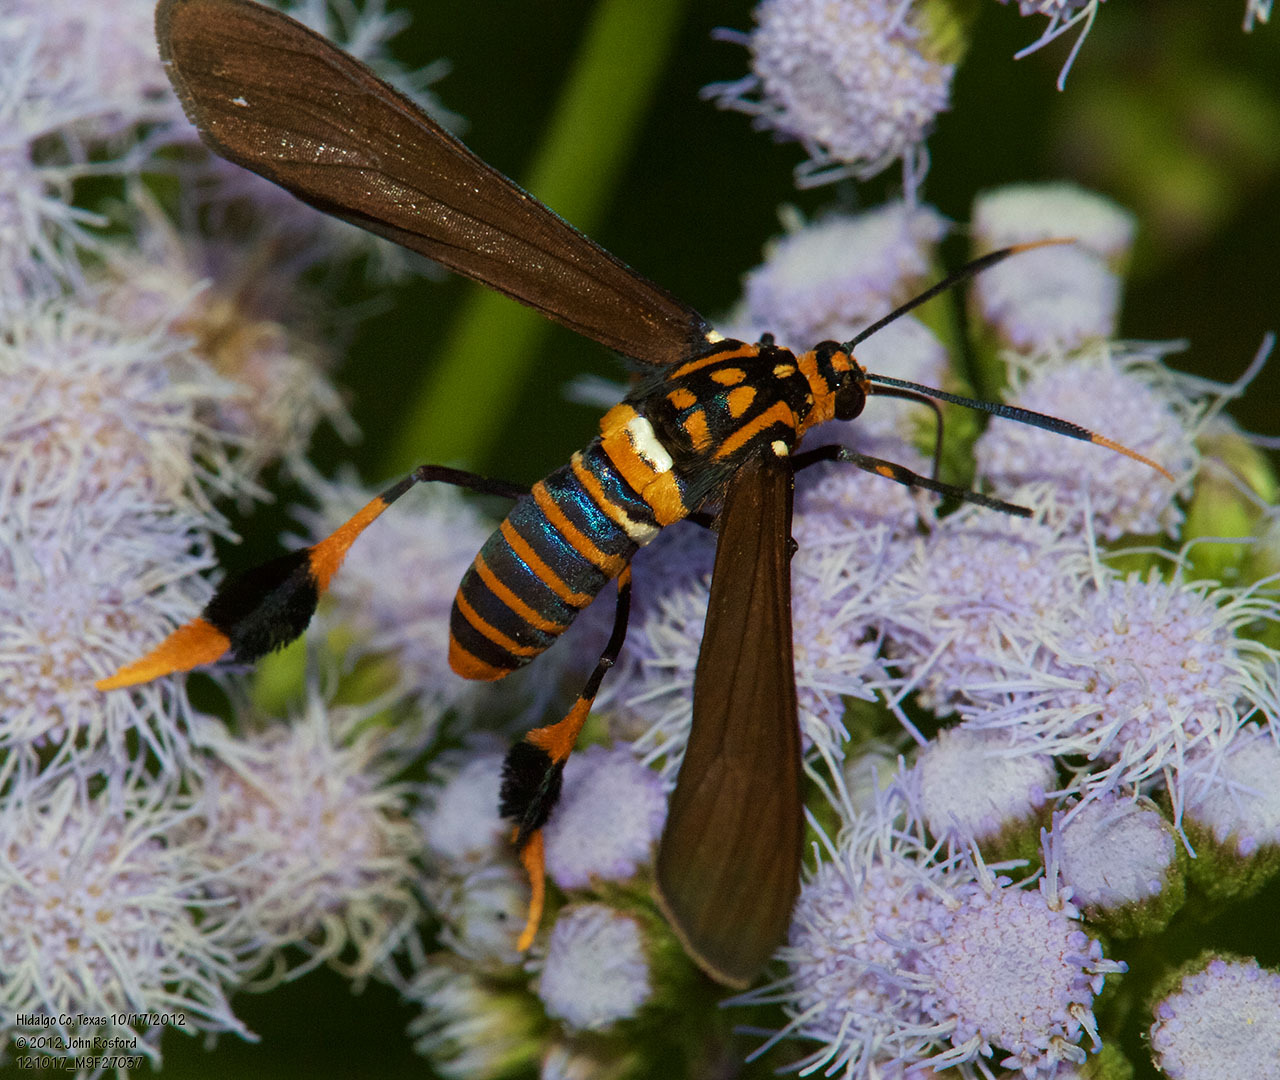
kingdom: Animalia
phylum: Arthropoda
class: Insecta
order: Lepidoptera
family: Erebidae
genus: Horama
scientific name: Horama panthalon
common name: Texas wasp moth
